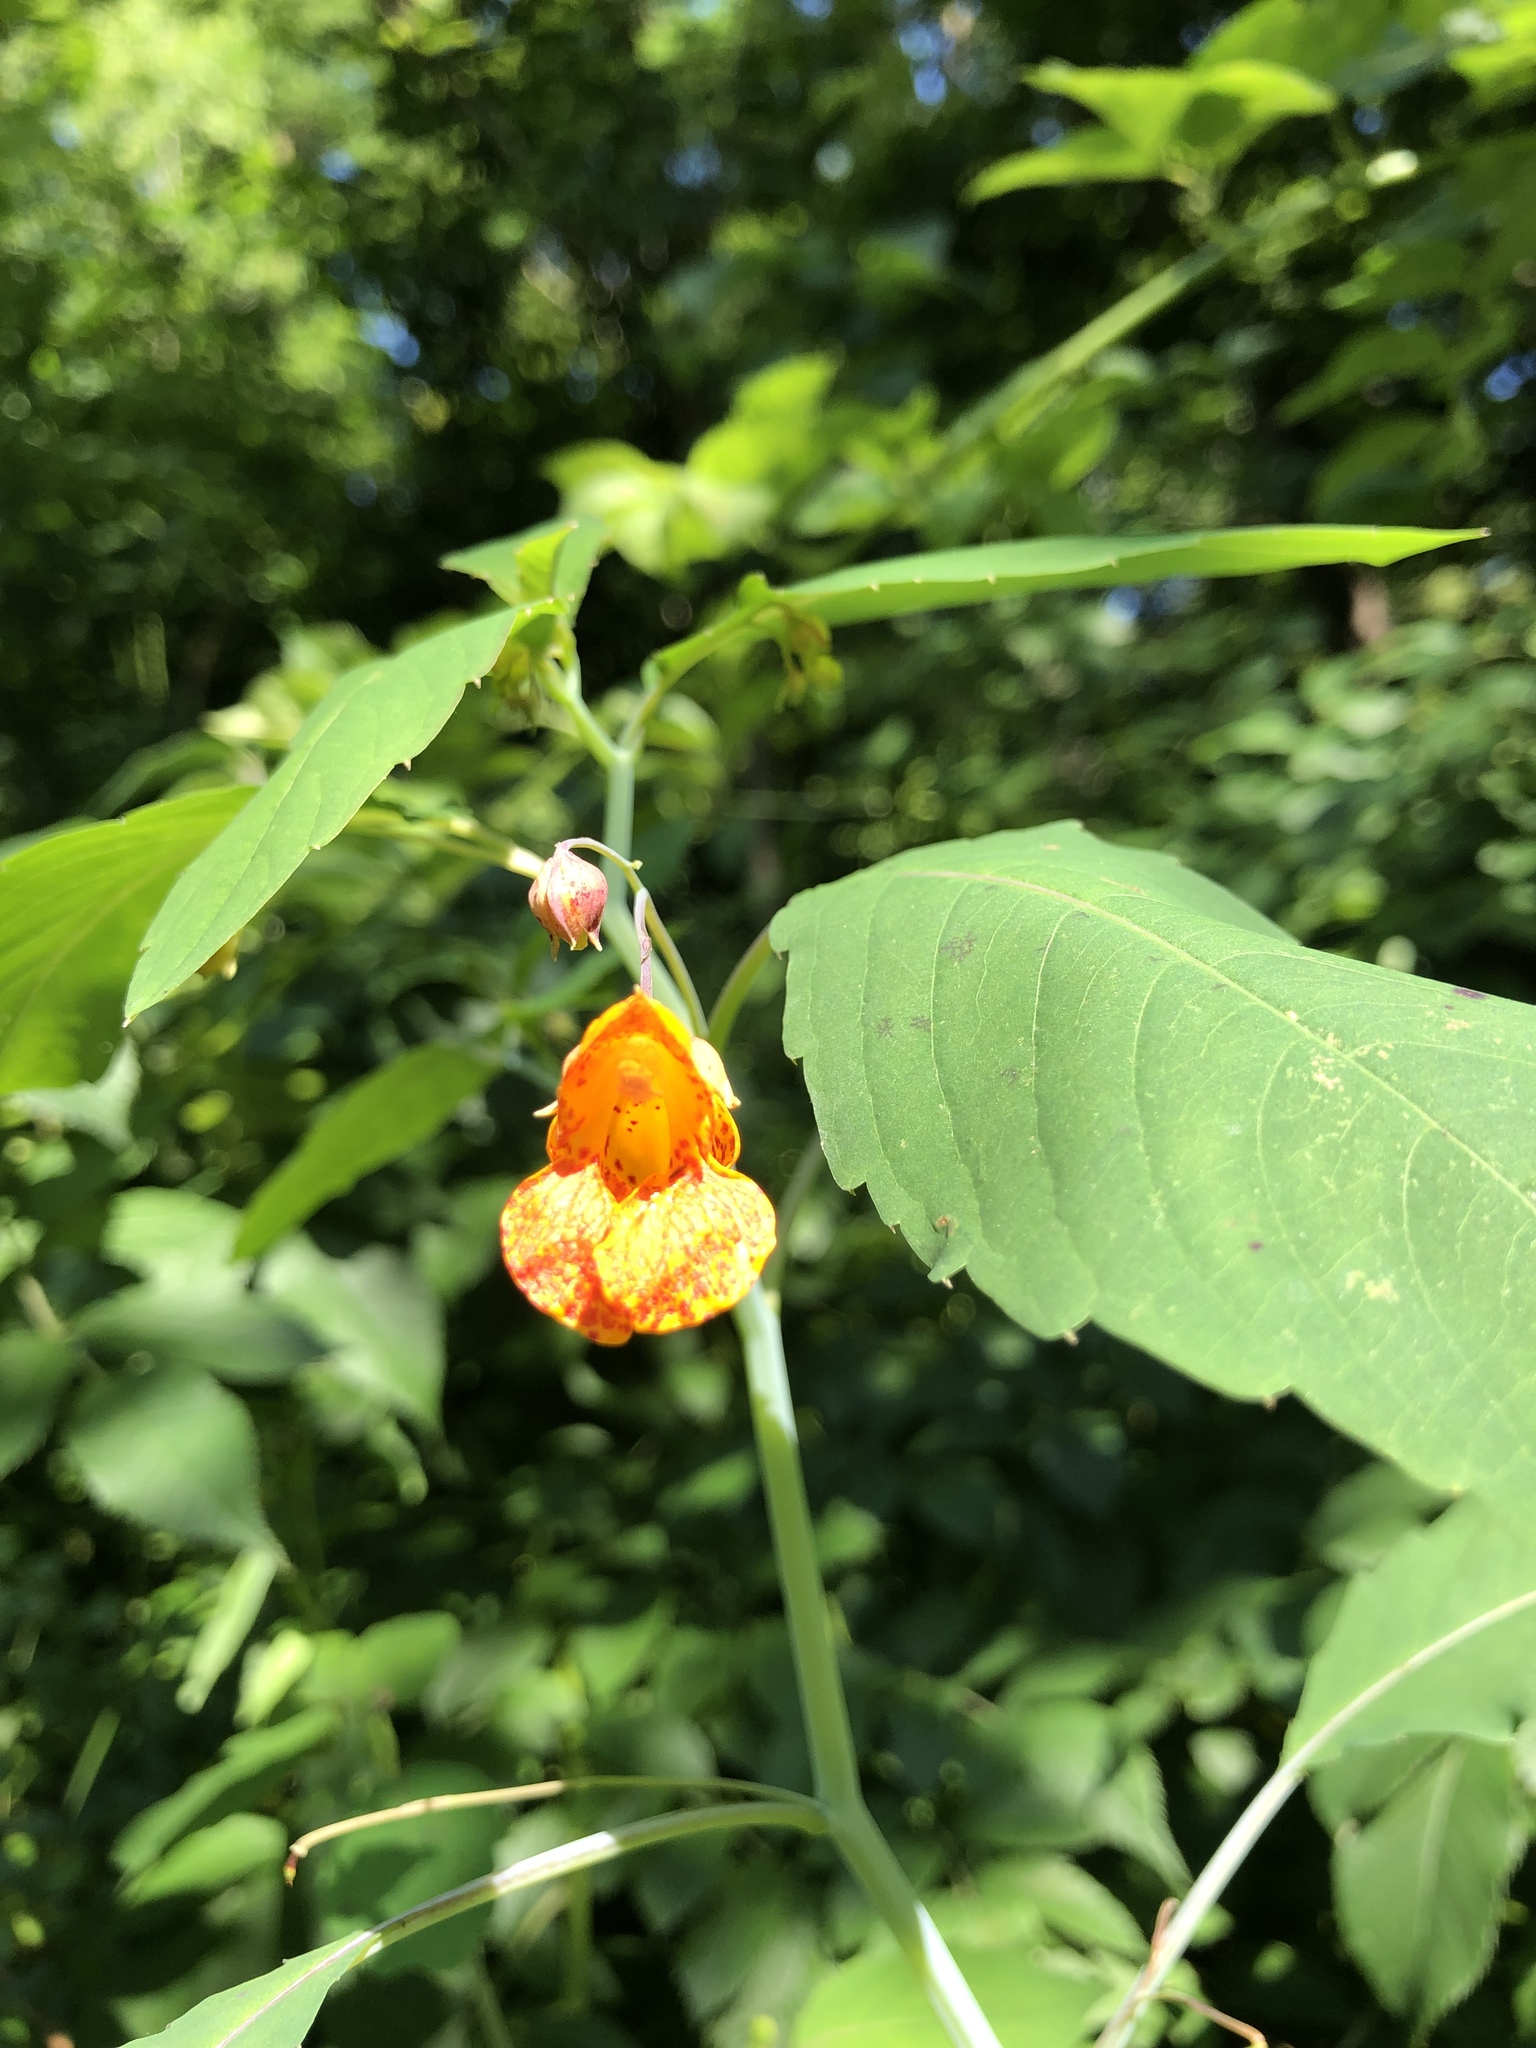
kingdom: Plantae
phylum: Tracheophyta
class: Magnoliopsida
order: Ericales
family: Balsaminaceae
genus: Impatiens
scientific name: Impatiens capensis
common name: Orange balsam
